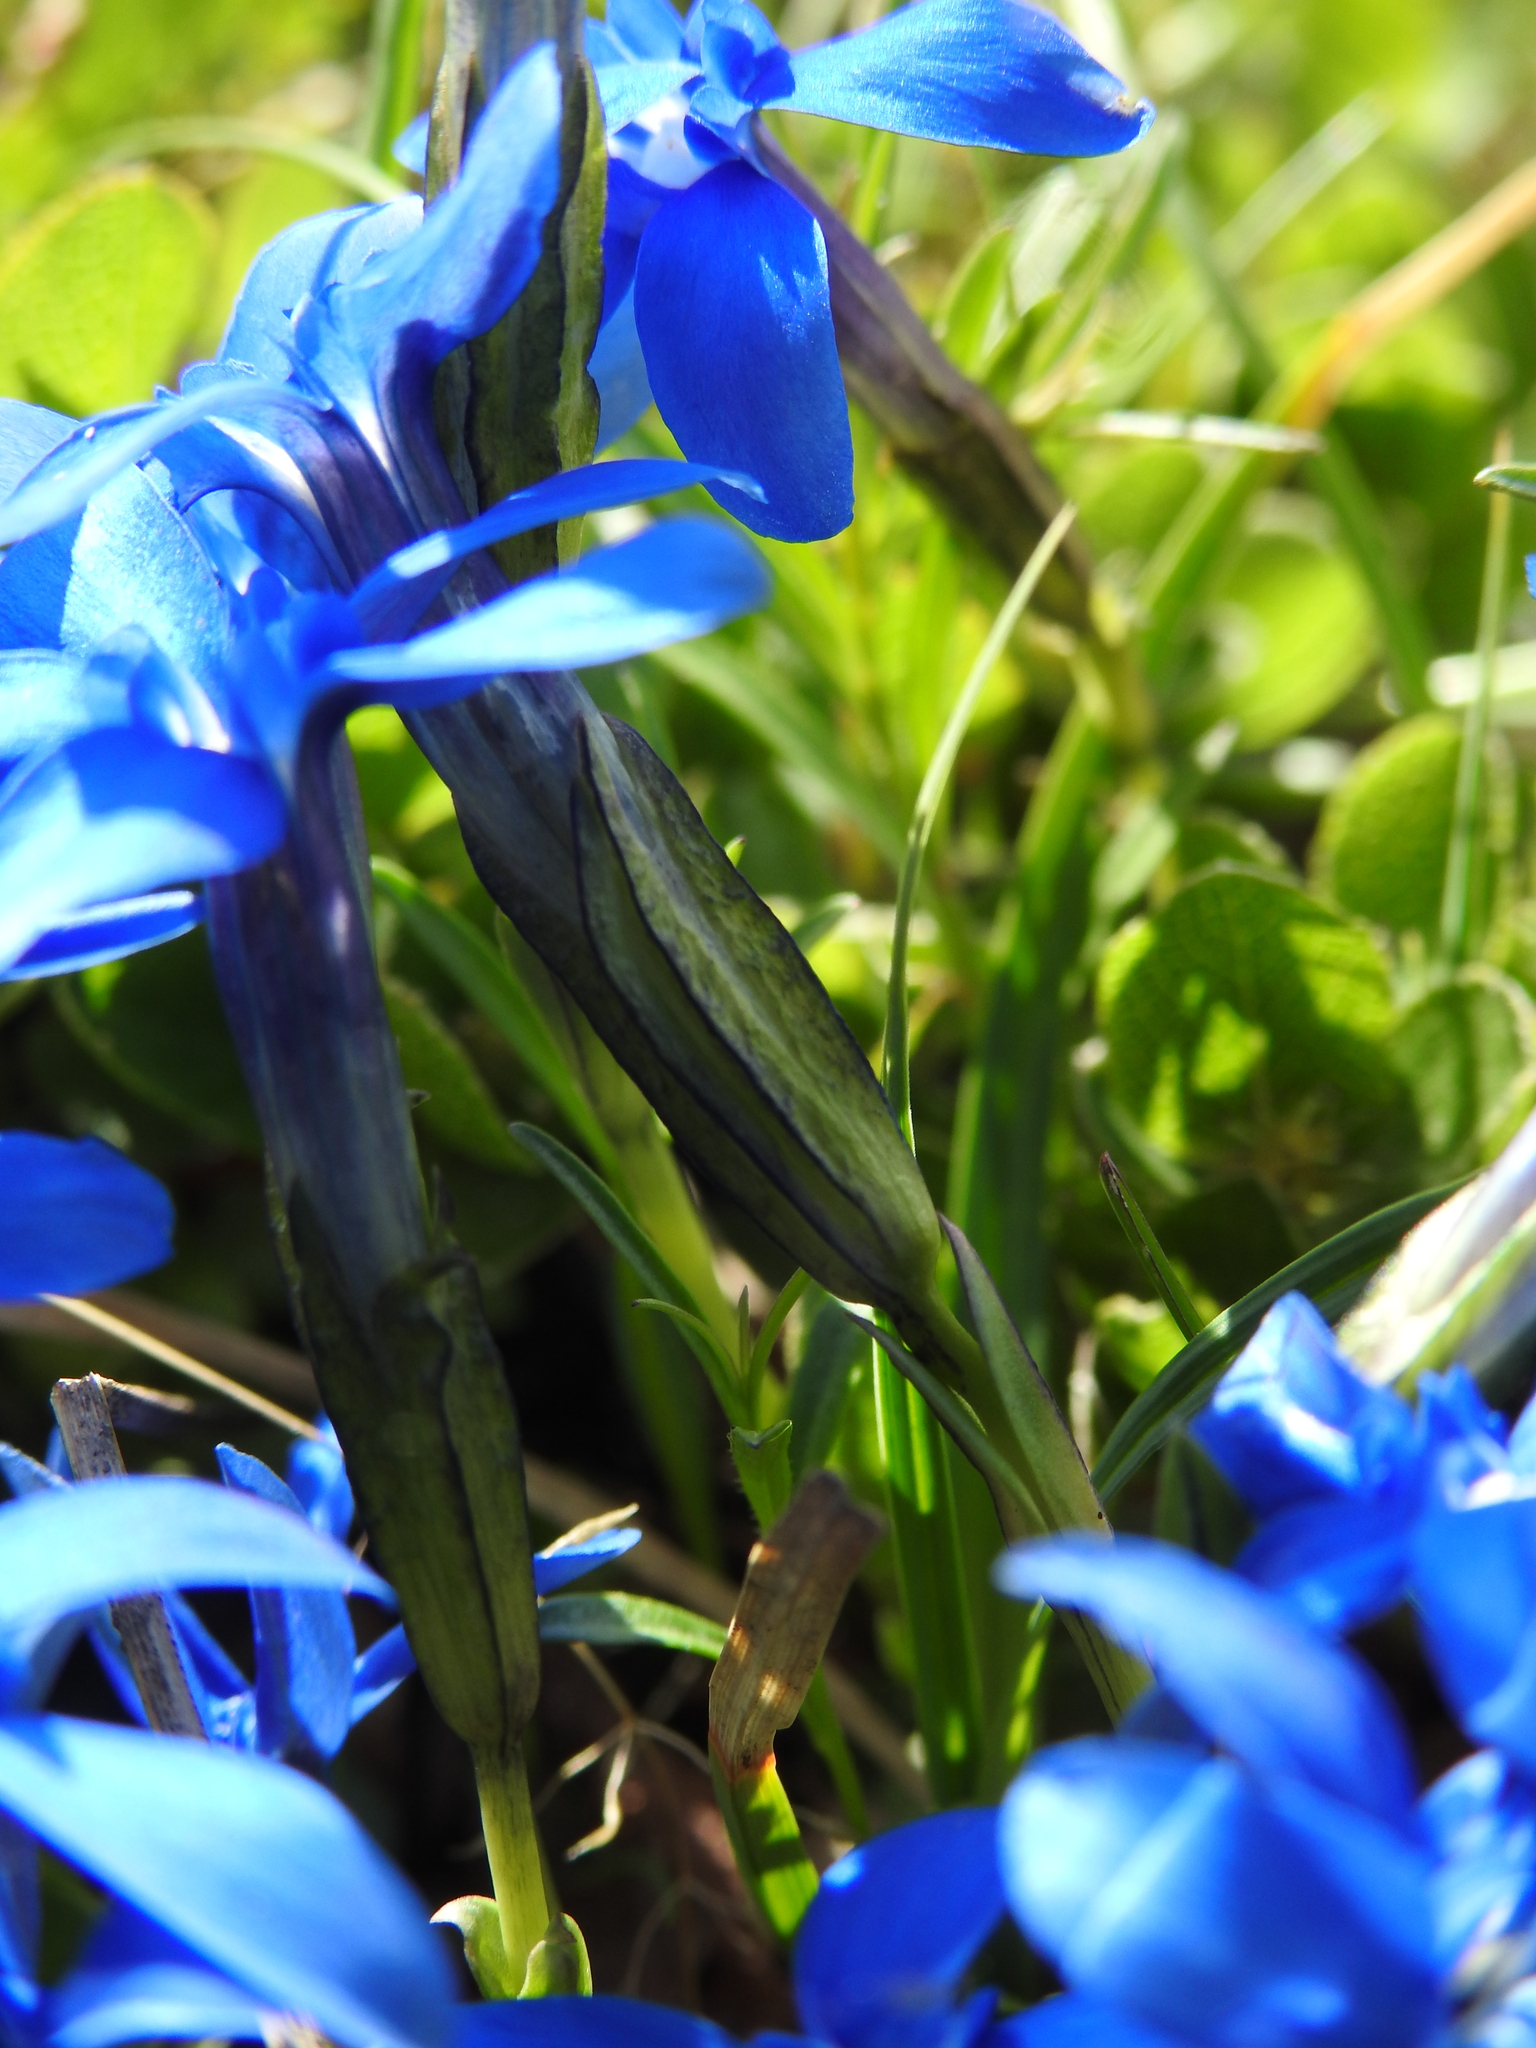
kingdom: Plantae
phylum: Tracheophyta
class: Magnoliopsida
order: Gentianales
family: Gentianaceae
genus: Gentiana
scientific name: Gentiana brachyphylla
